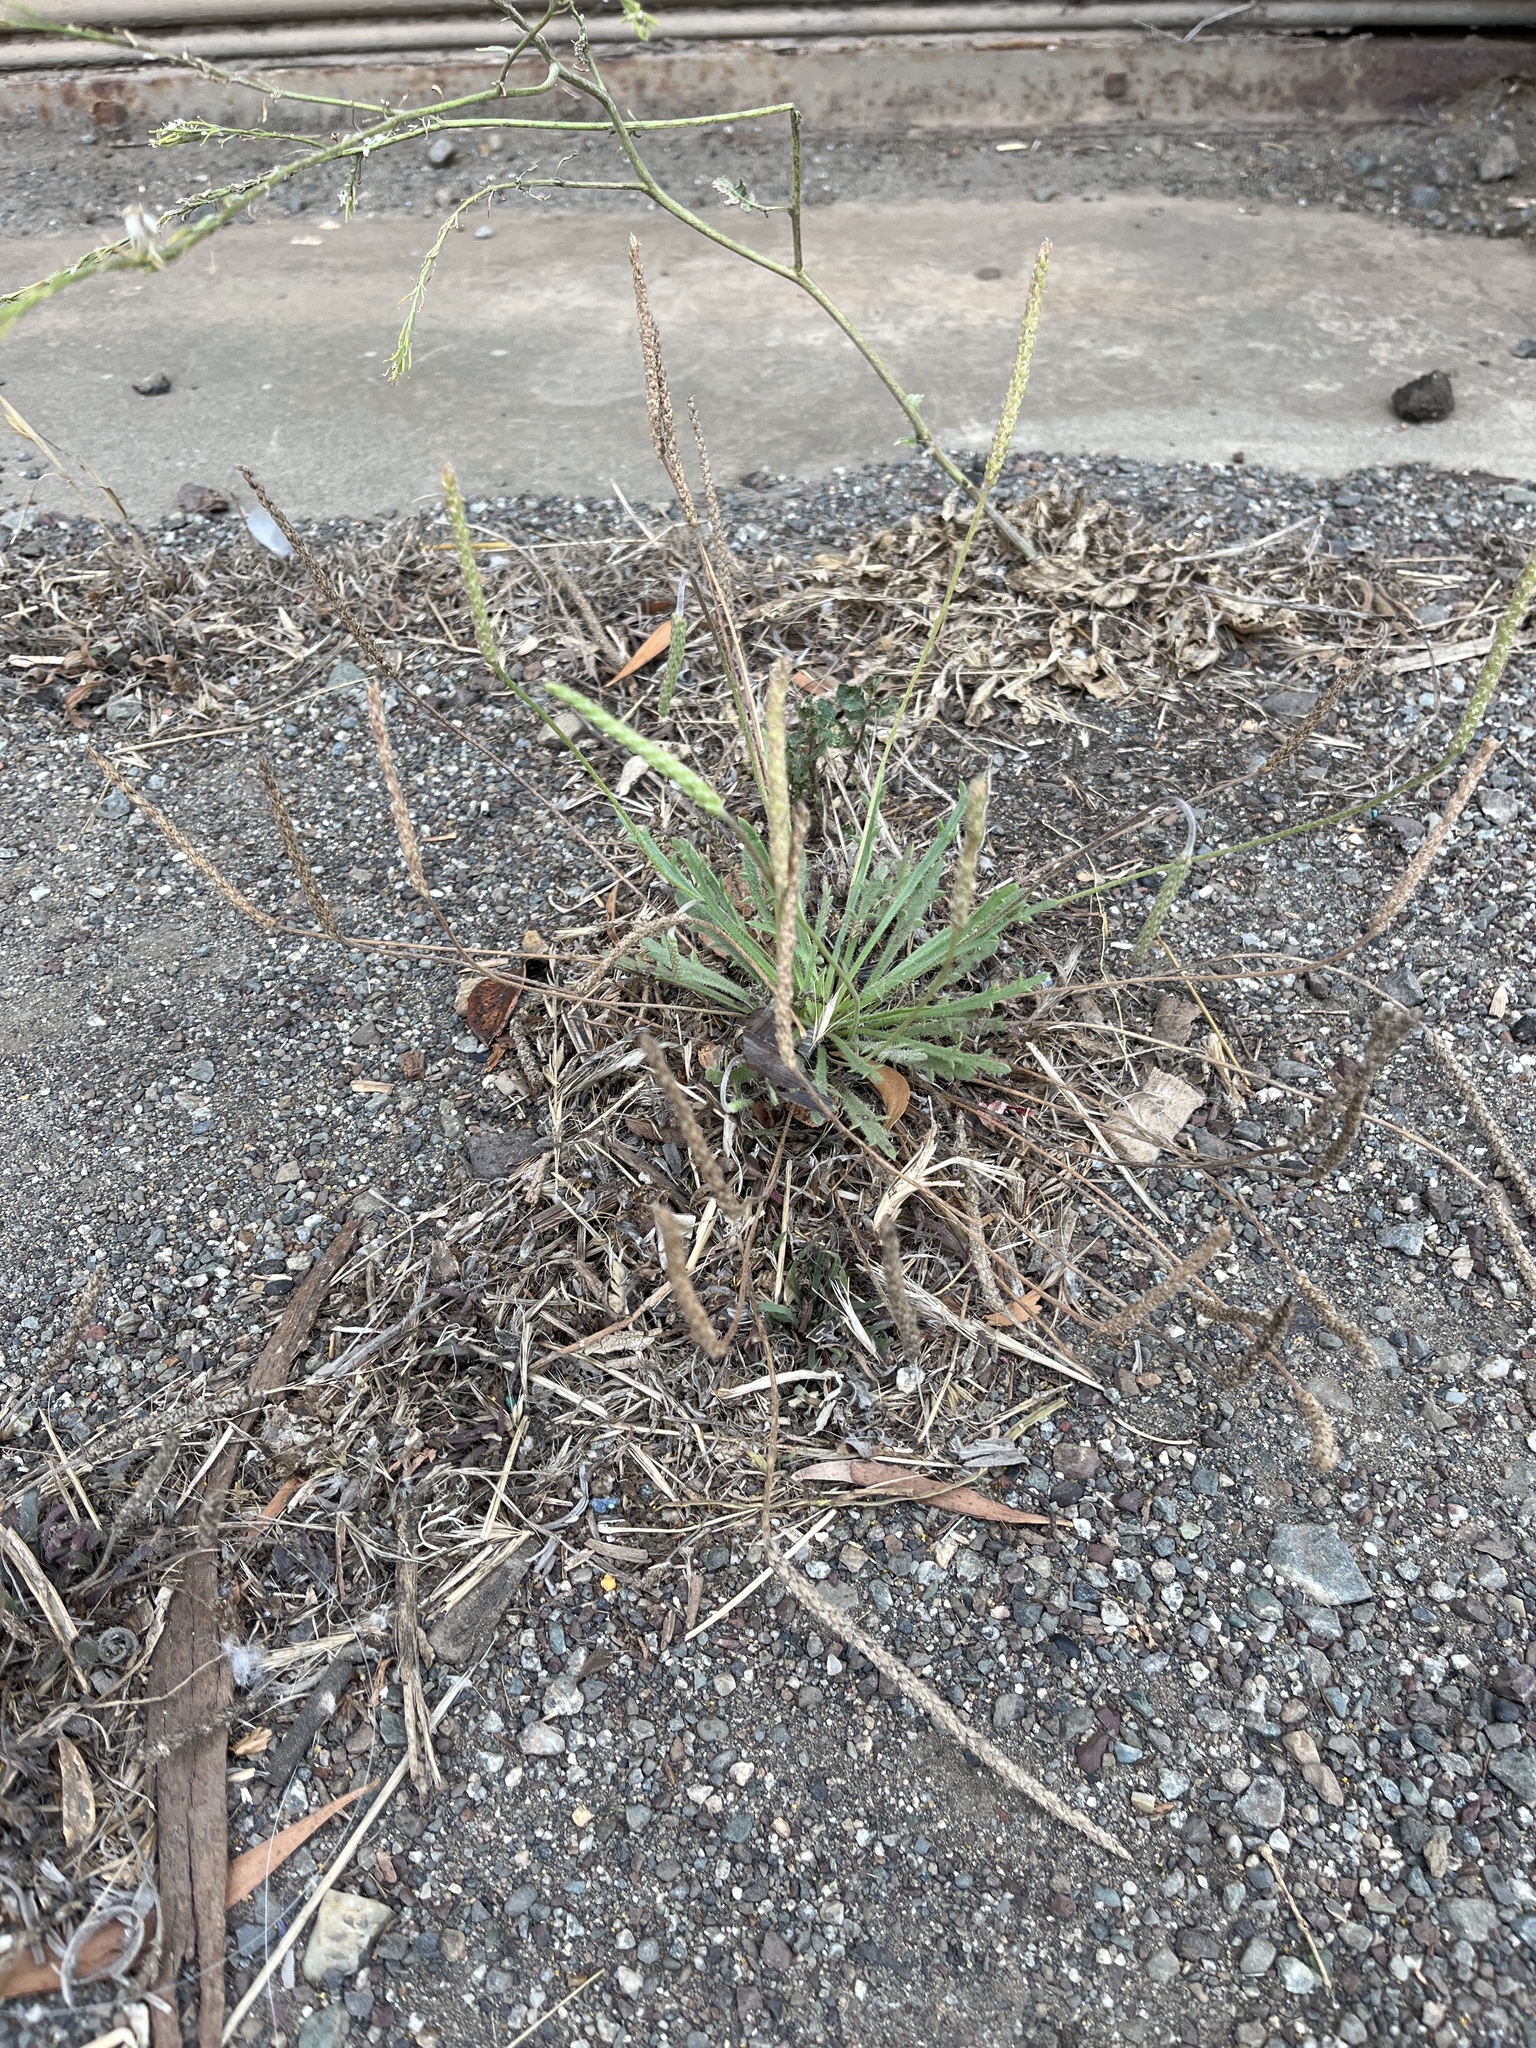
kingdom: Plantae
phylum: Tracheophyta
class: Magnoliopsida
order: Lamiales
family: Plantaginaceae
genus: Plantago
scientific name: Plantago coronopus
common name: Buck's-horn plantain
